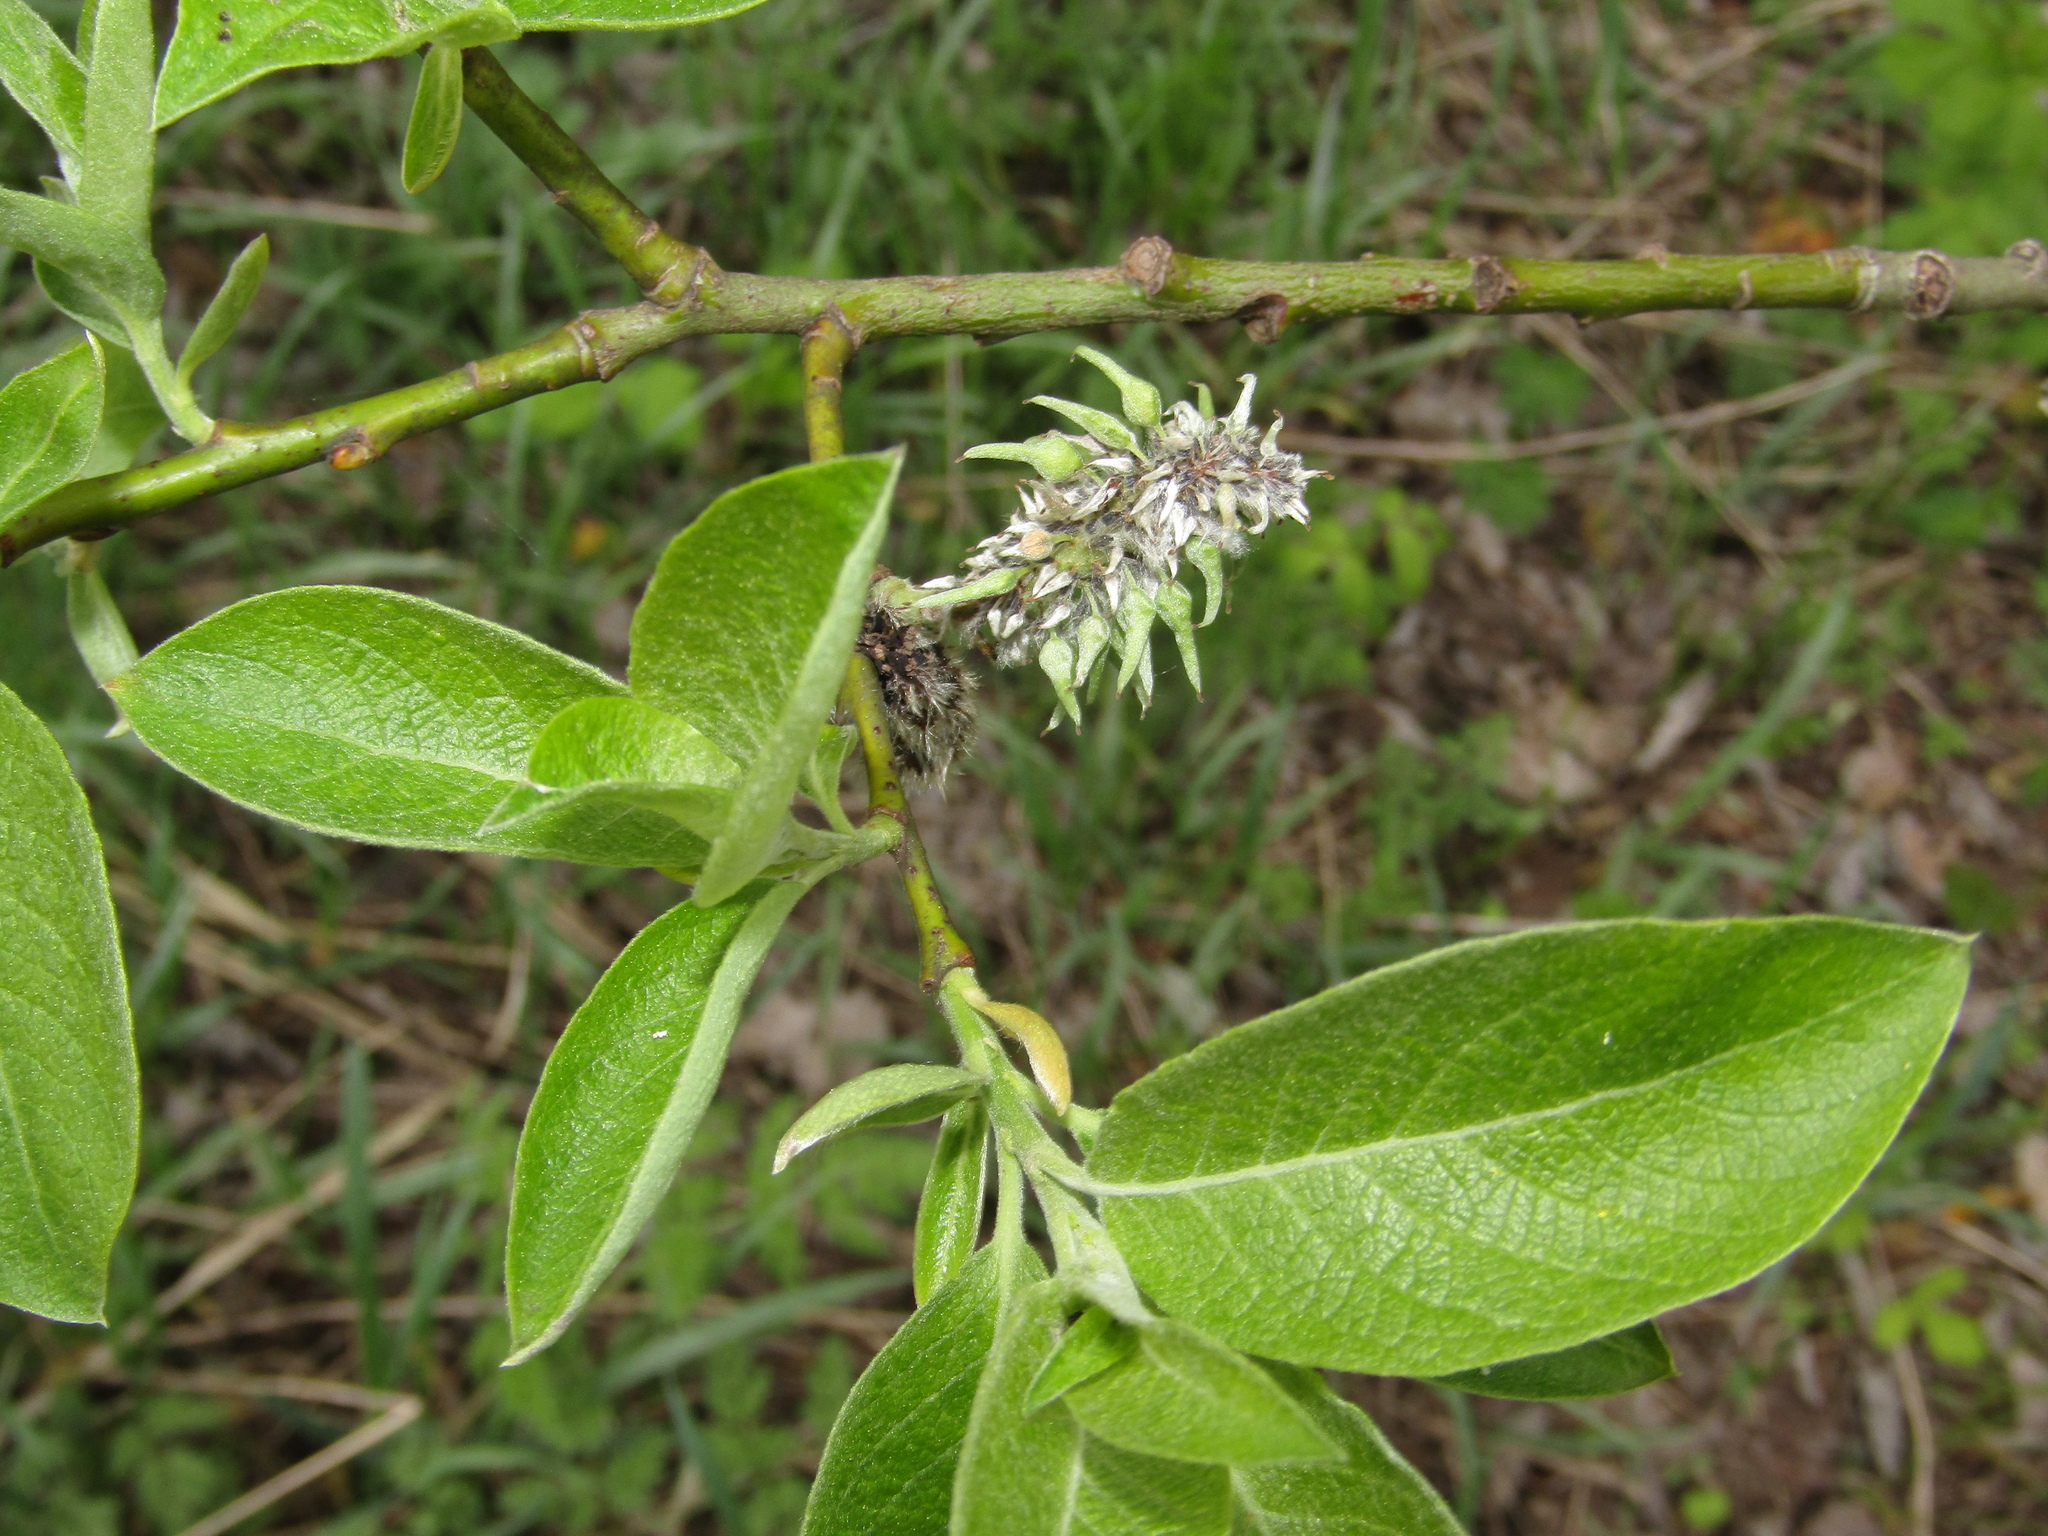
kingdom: Plantae
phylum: Tracheophyta
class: Magnoliopsida
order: Malpighiales
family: Salicaceae
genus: Salix
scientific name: Salix caprea
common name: Goat willow
